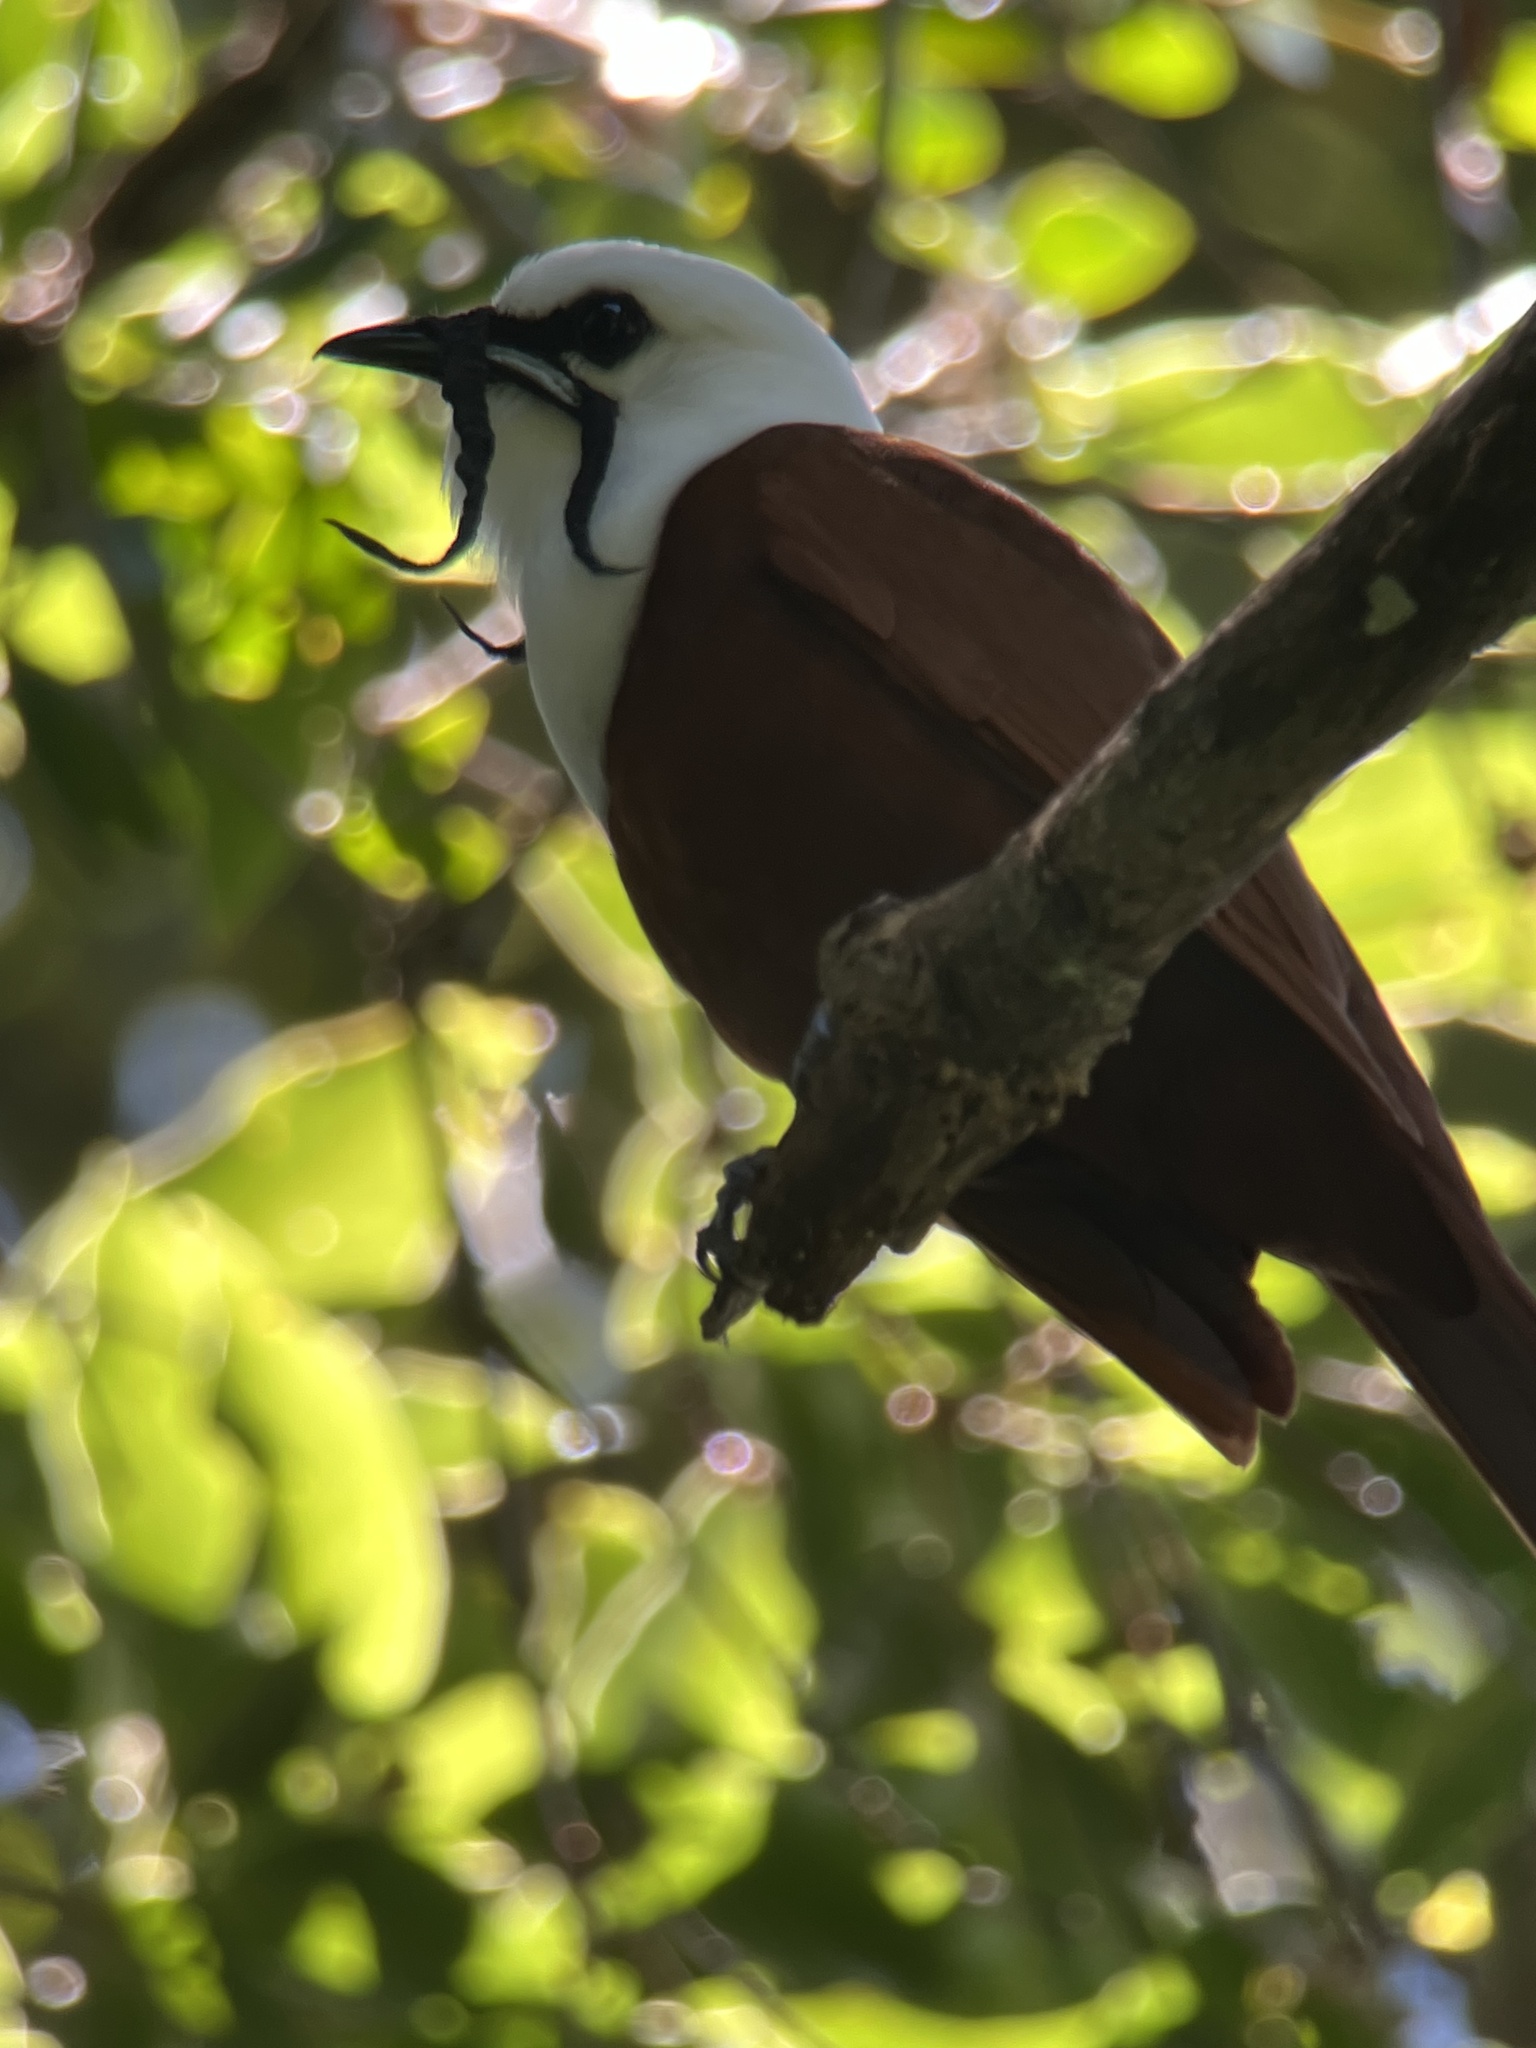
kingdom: Animalia
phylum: Chordata
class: Aves
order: Passeriformes
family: Cotingidae
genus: Procnias
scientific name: Procnias tricarunculatus
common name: Three-wattled bellbird
